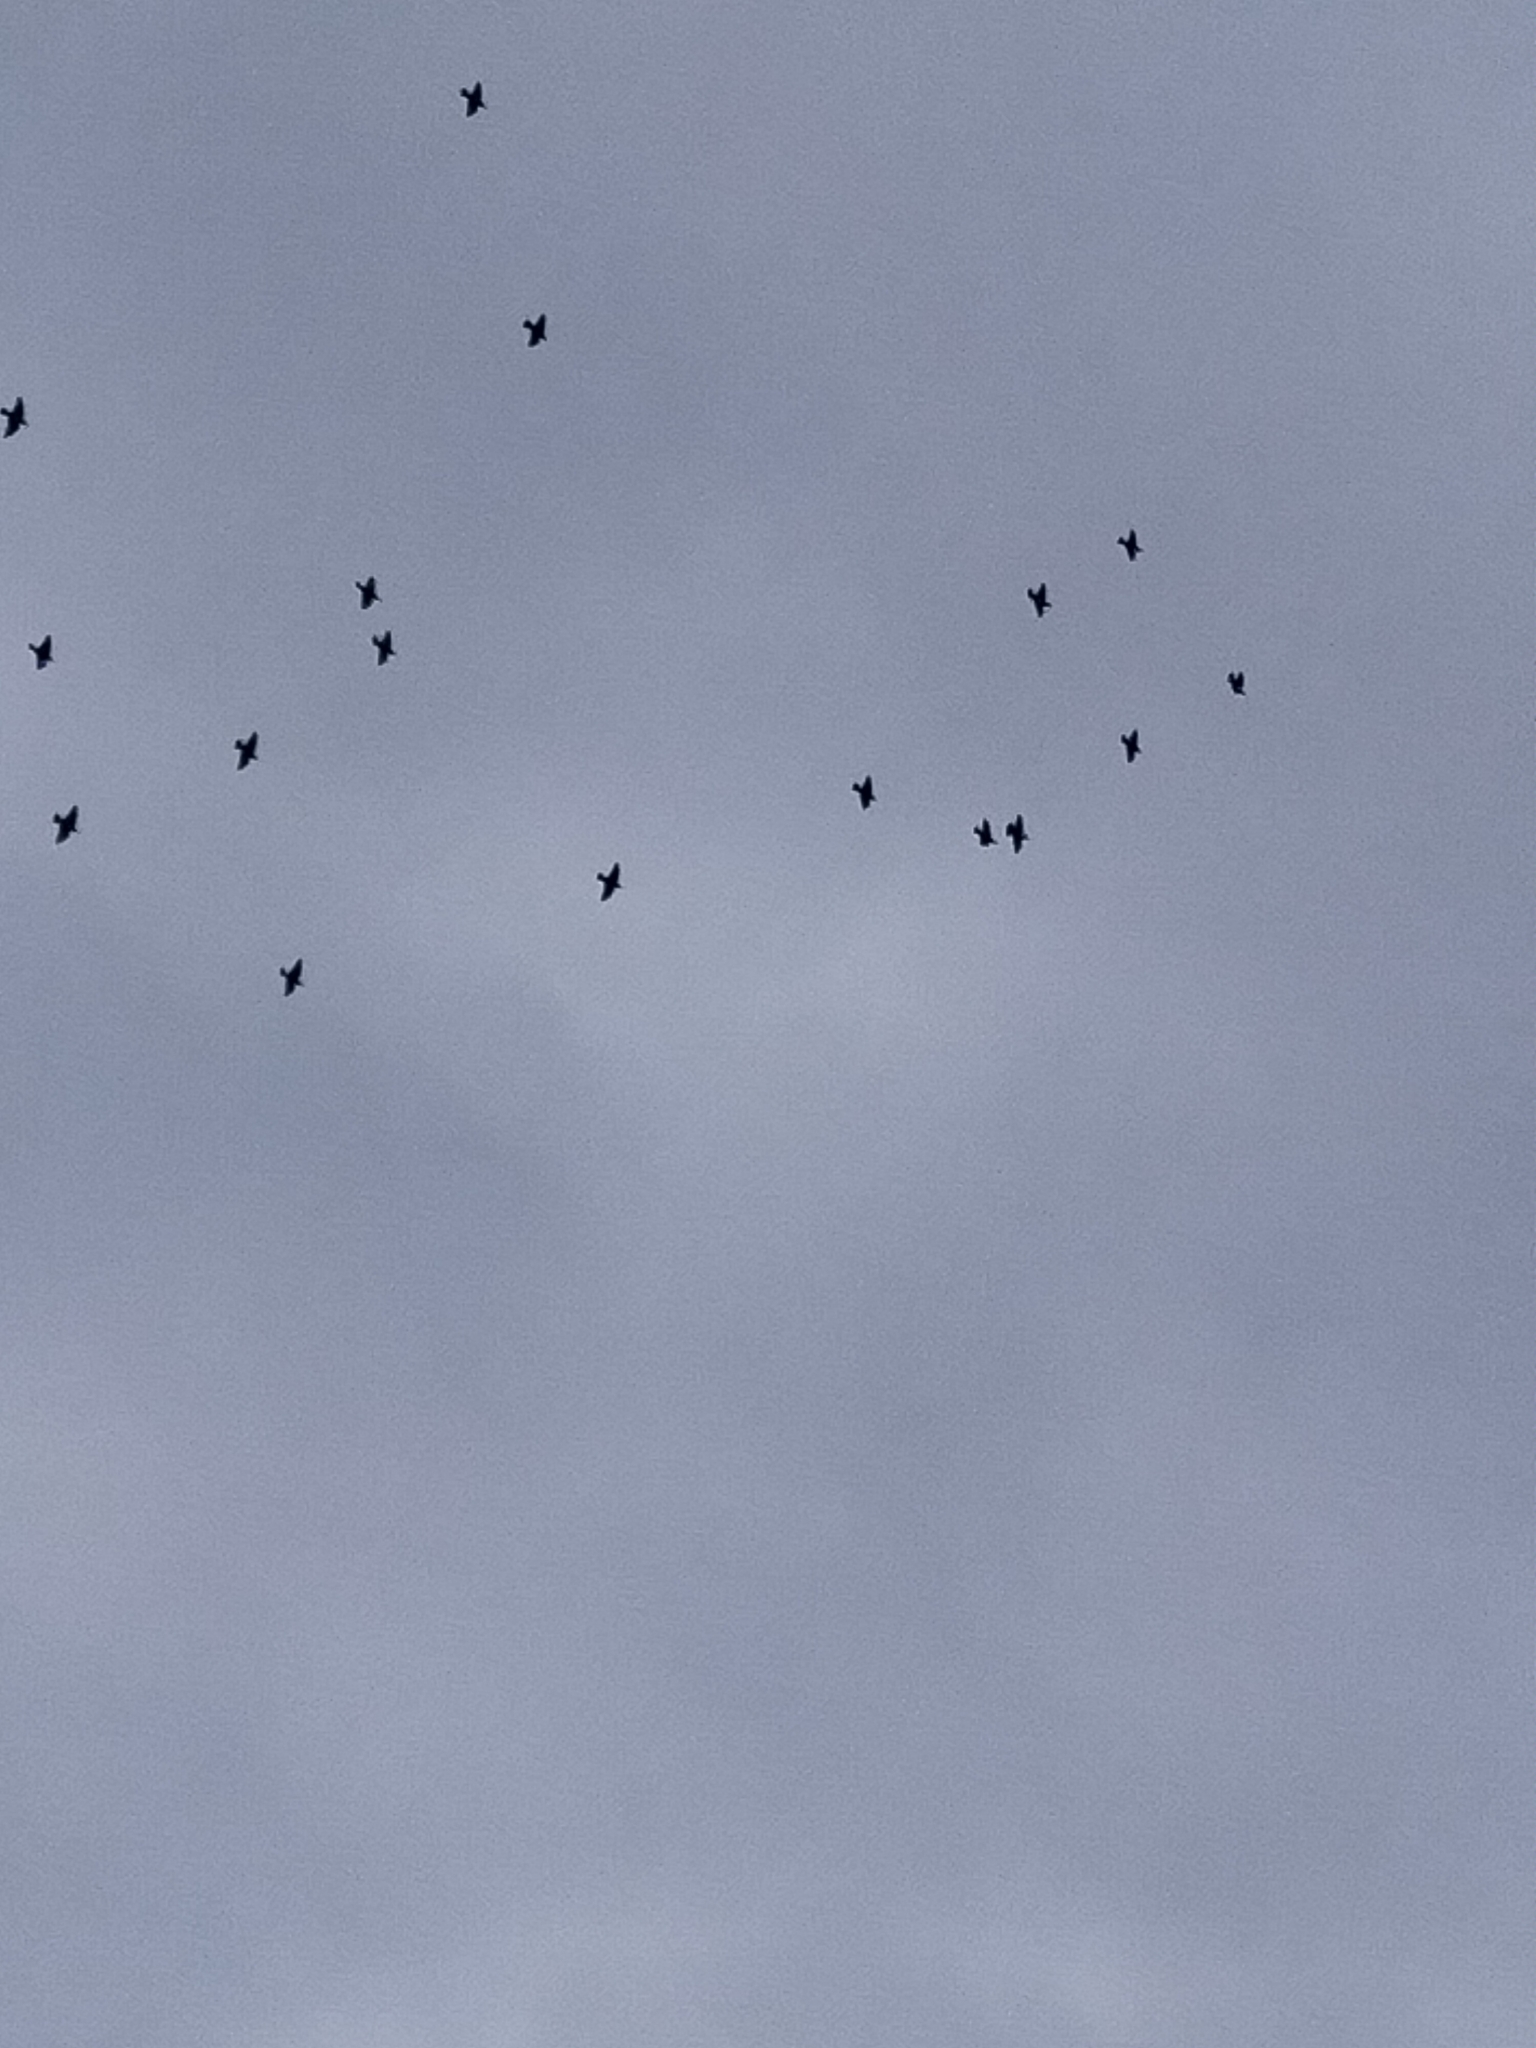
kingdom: Animalia
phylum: Chordata
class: Aves
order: Columbiformes
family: Columbidae
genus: Columba
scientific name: Columba livia
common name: Rock pigeon
